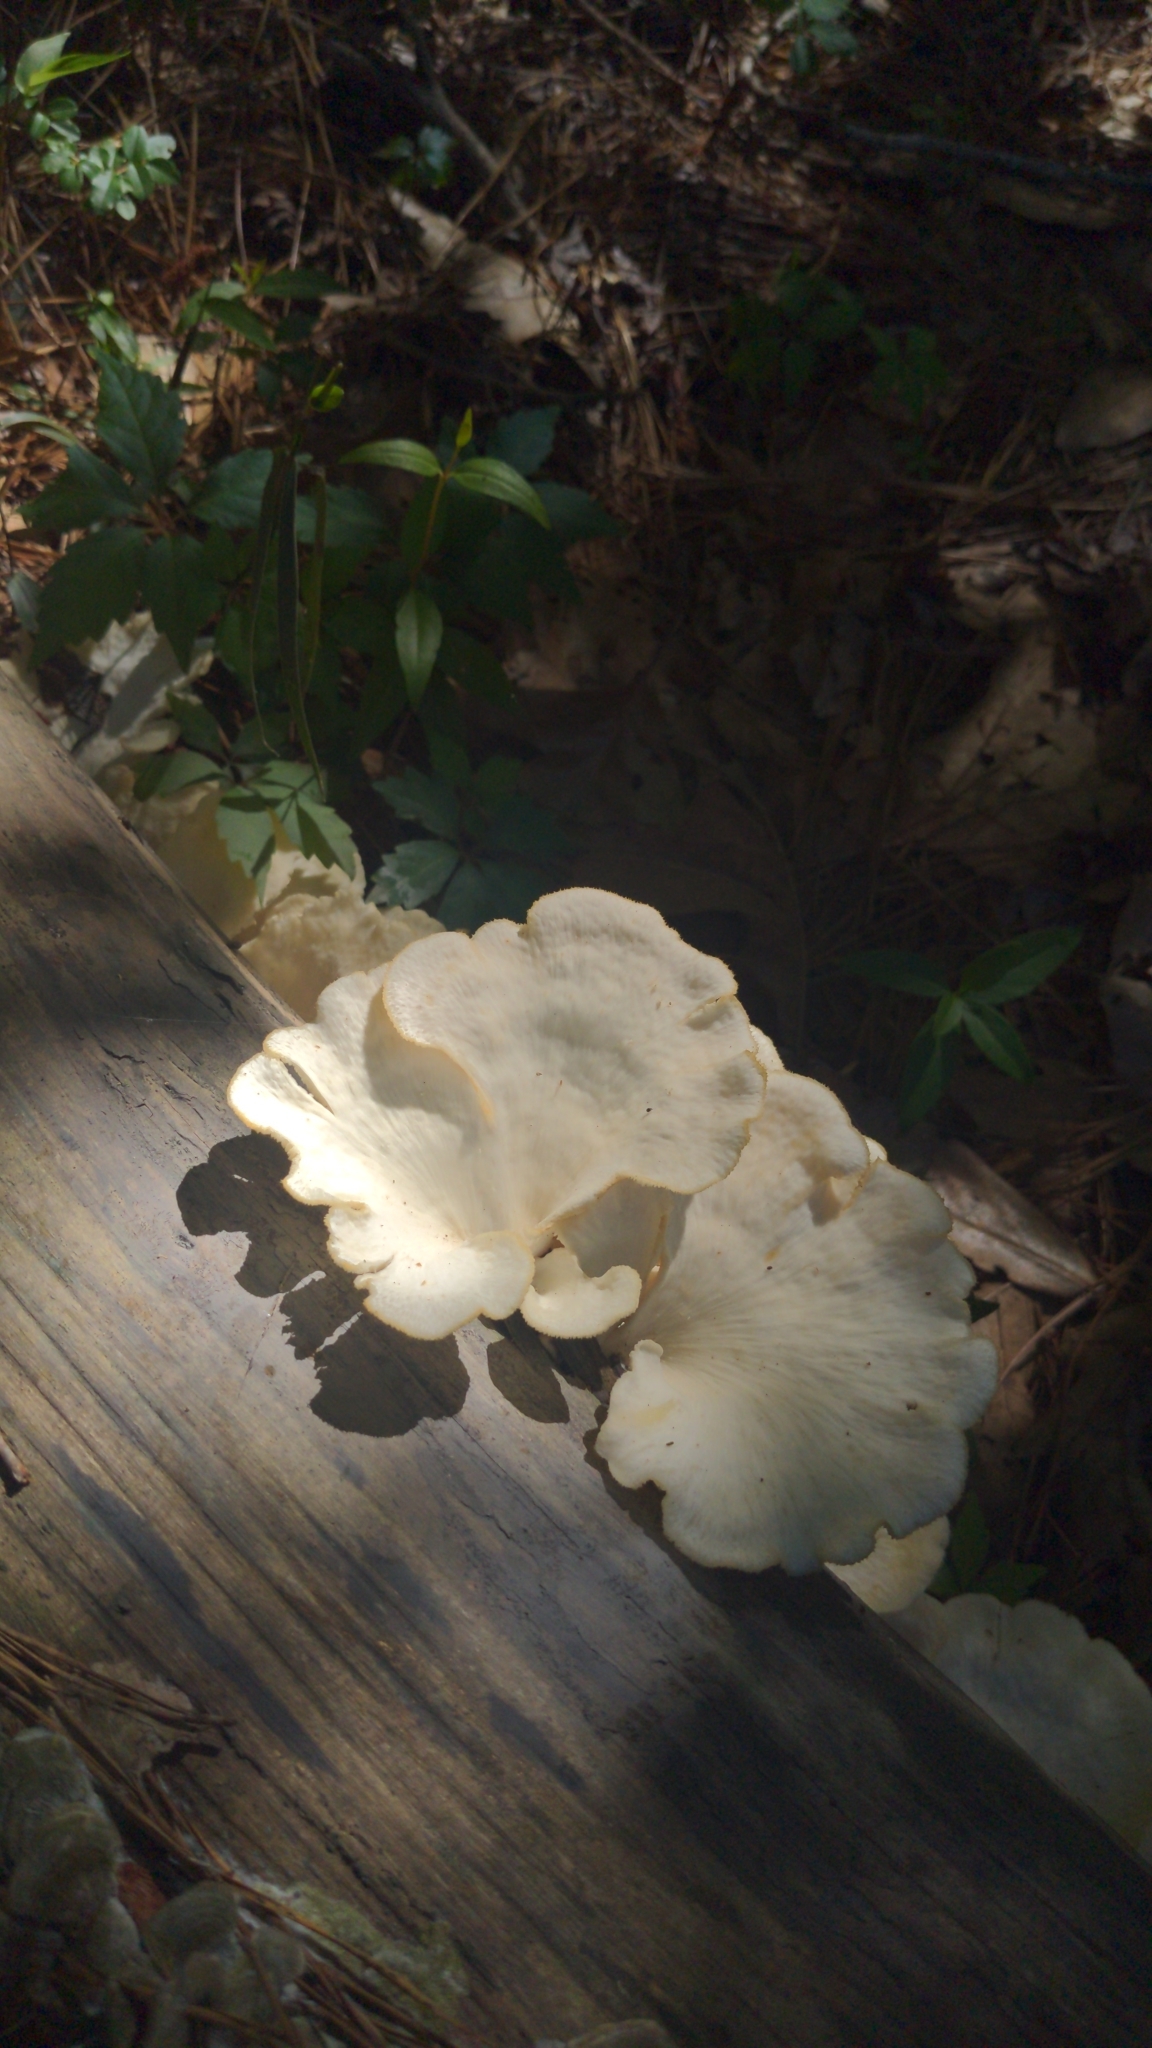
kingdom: Fungi
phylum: Basidiomycota
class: Agaricomycetes
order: Polyporales
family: Polyporaceae
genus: Favolus
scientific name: Favolus tenuiculus
